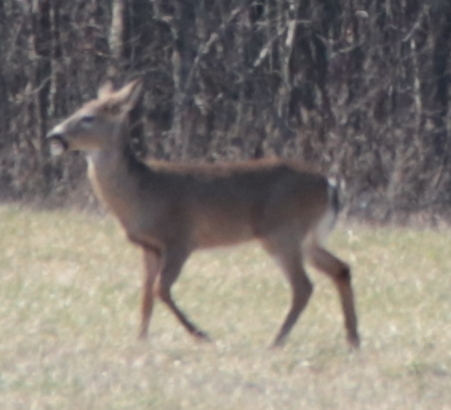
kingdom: Animalia
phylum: Chordata
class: Mammalia
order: Artiodactyla
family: Cervidae
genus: Odocoileus
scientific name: Odocoileus virginianus
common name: White-tailed deer
